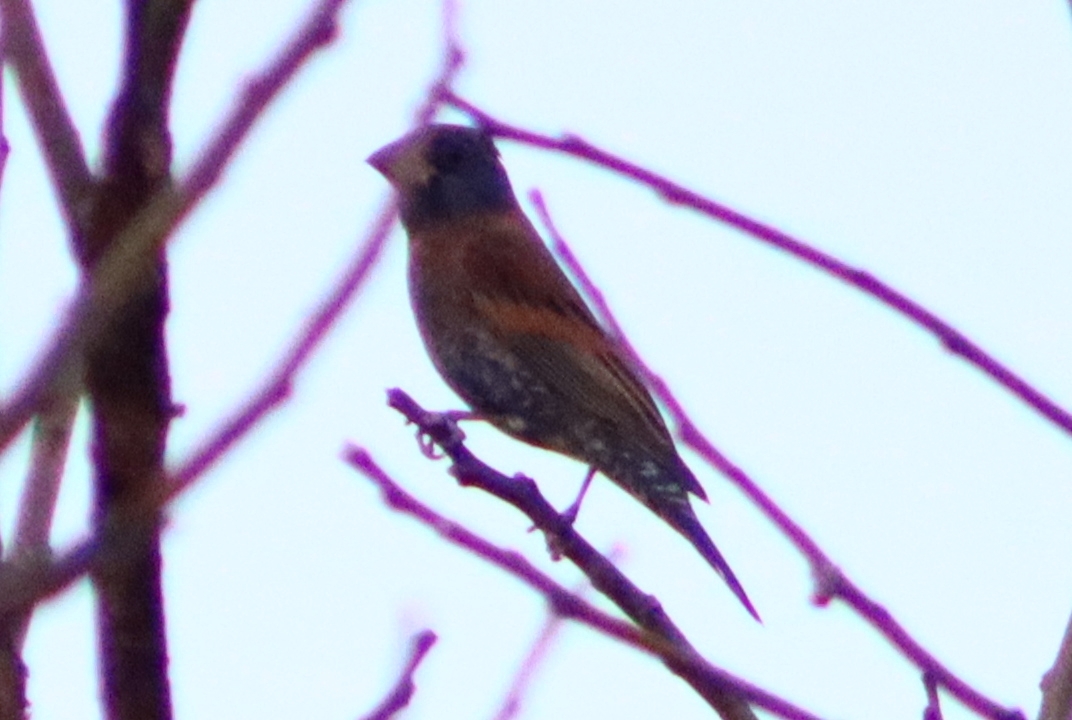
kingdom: Animalia
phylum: Chordata
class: Aves
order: Passeriformes
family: Cardinalidae
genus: Passerina
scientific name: Passerina caerulea
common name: Blue grosbeak
